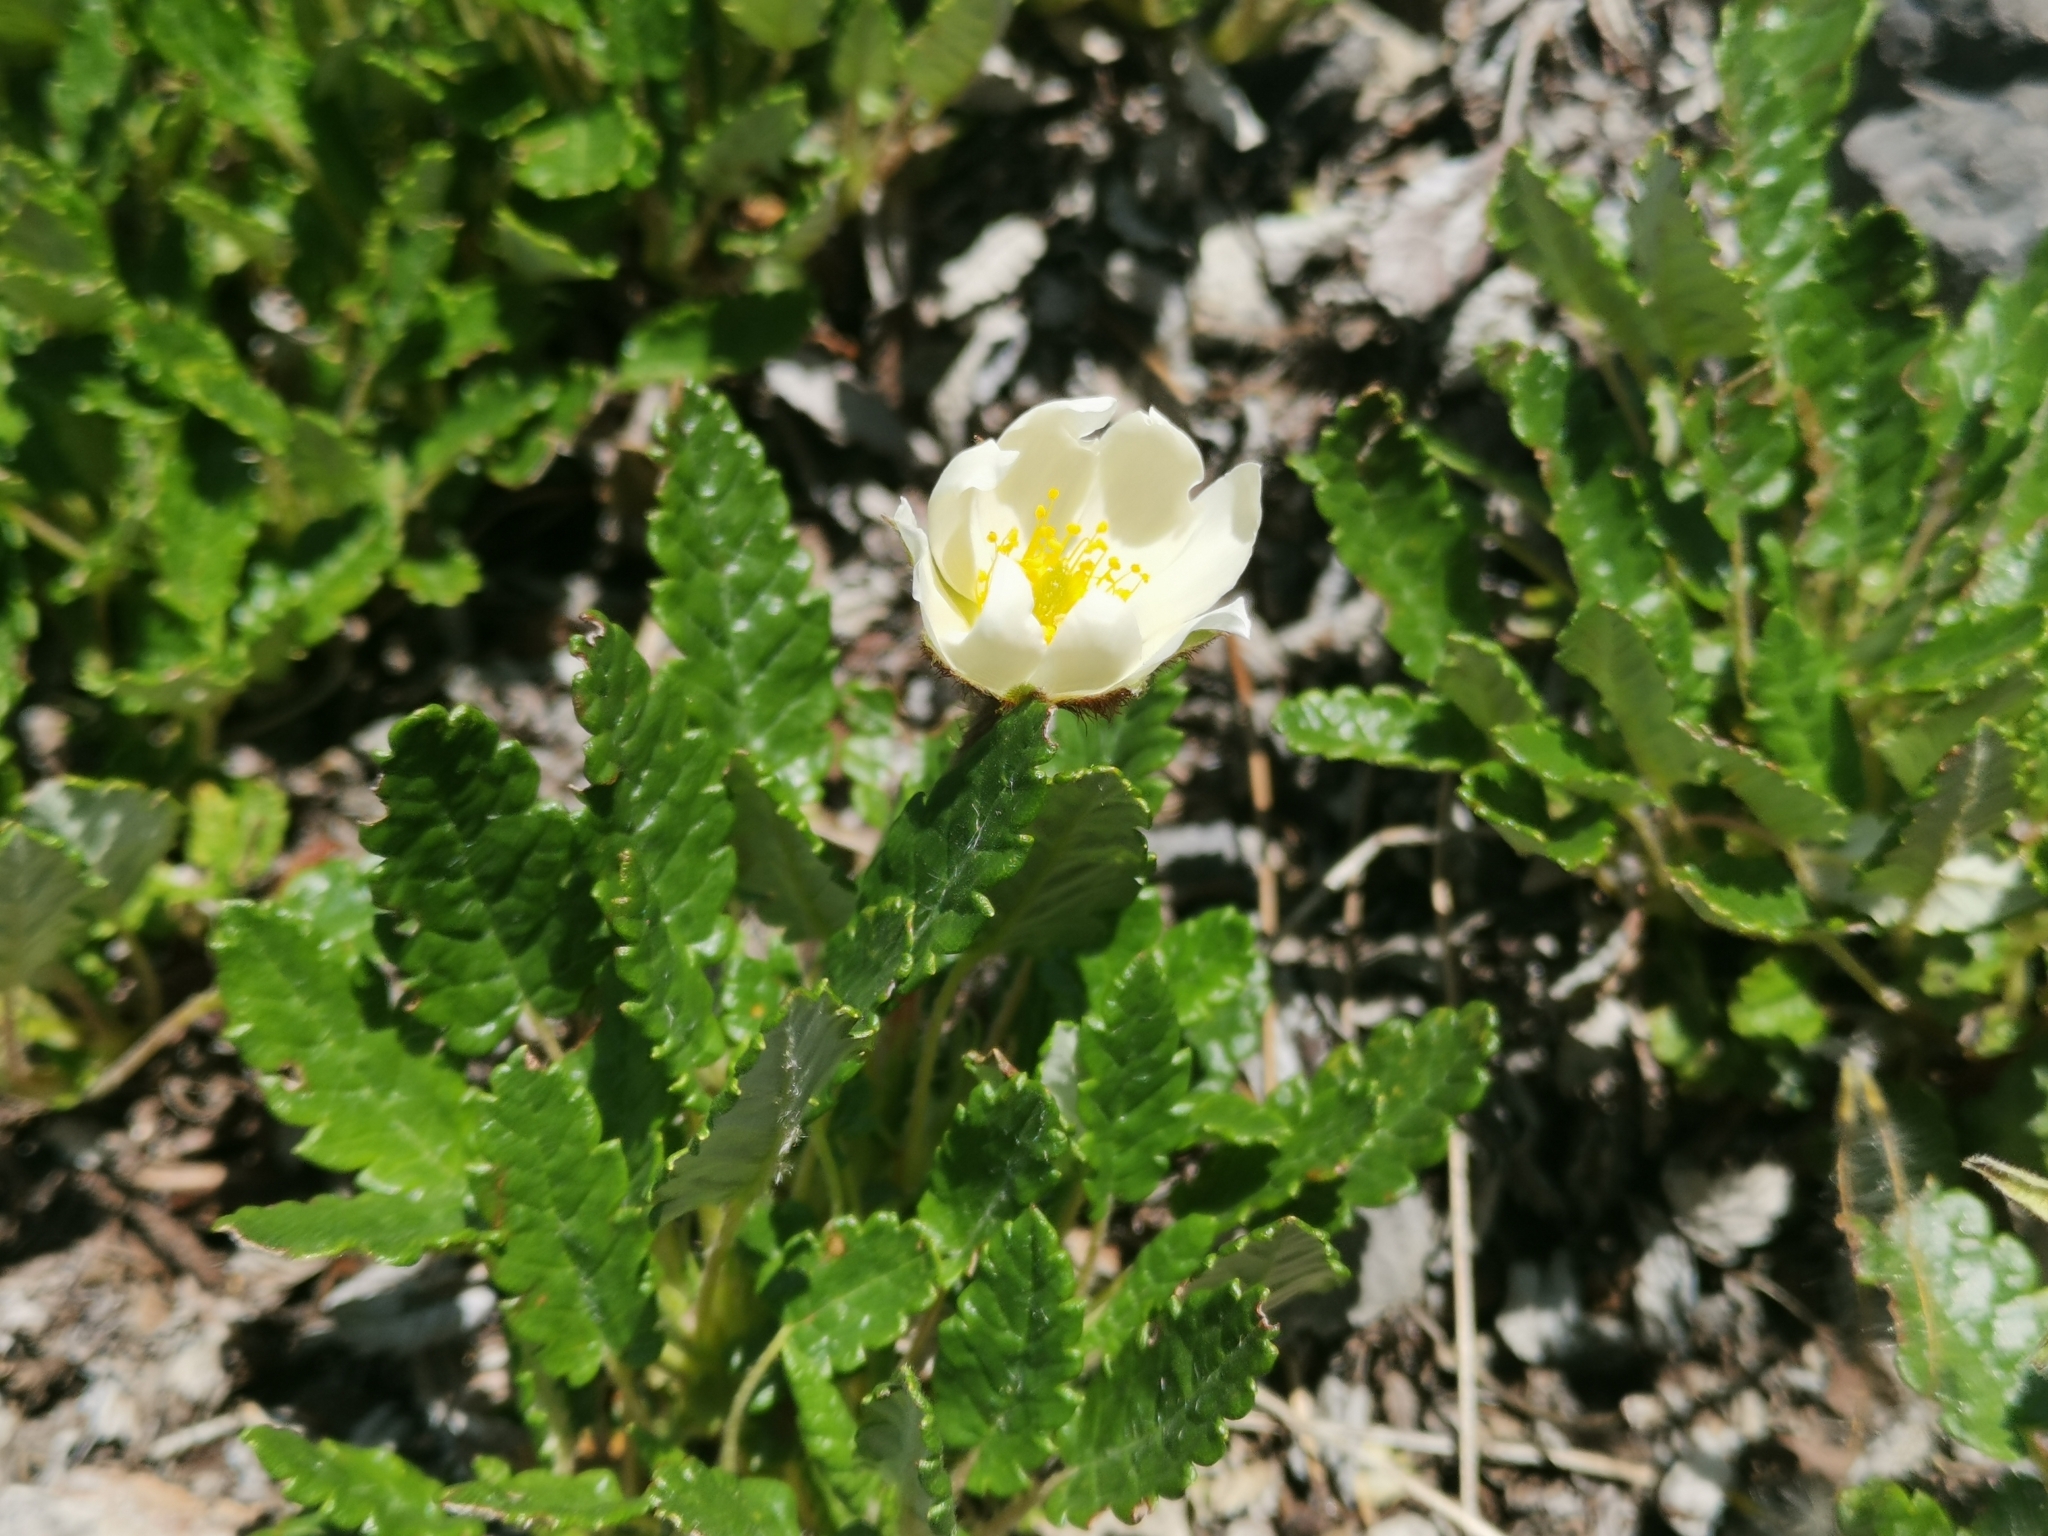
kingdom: Plantae
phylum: Tracheophyta
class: Magnoliopsida
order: Rosales
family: Rosaceae
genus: Dryas
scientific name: Dryas octopetala
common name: Eight-petal mountain-avens
